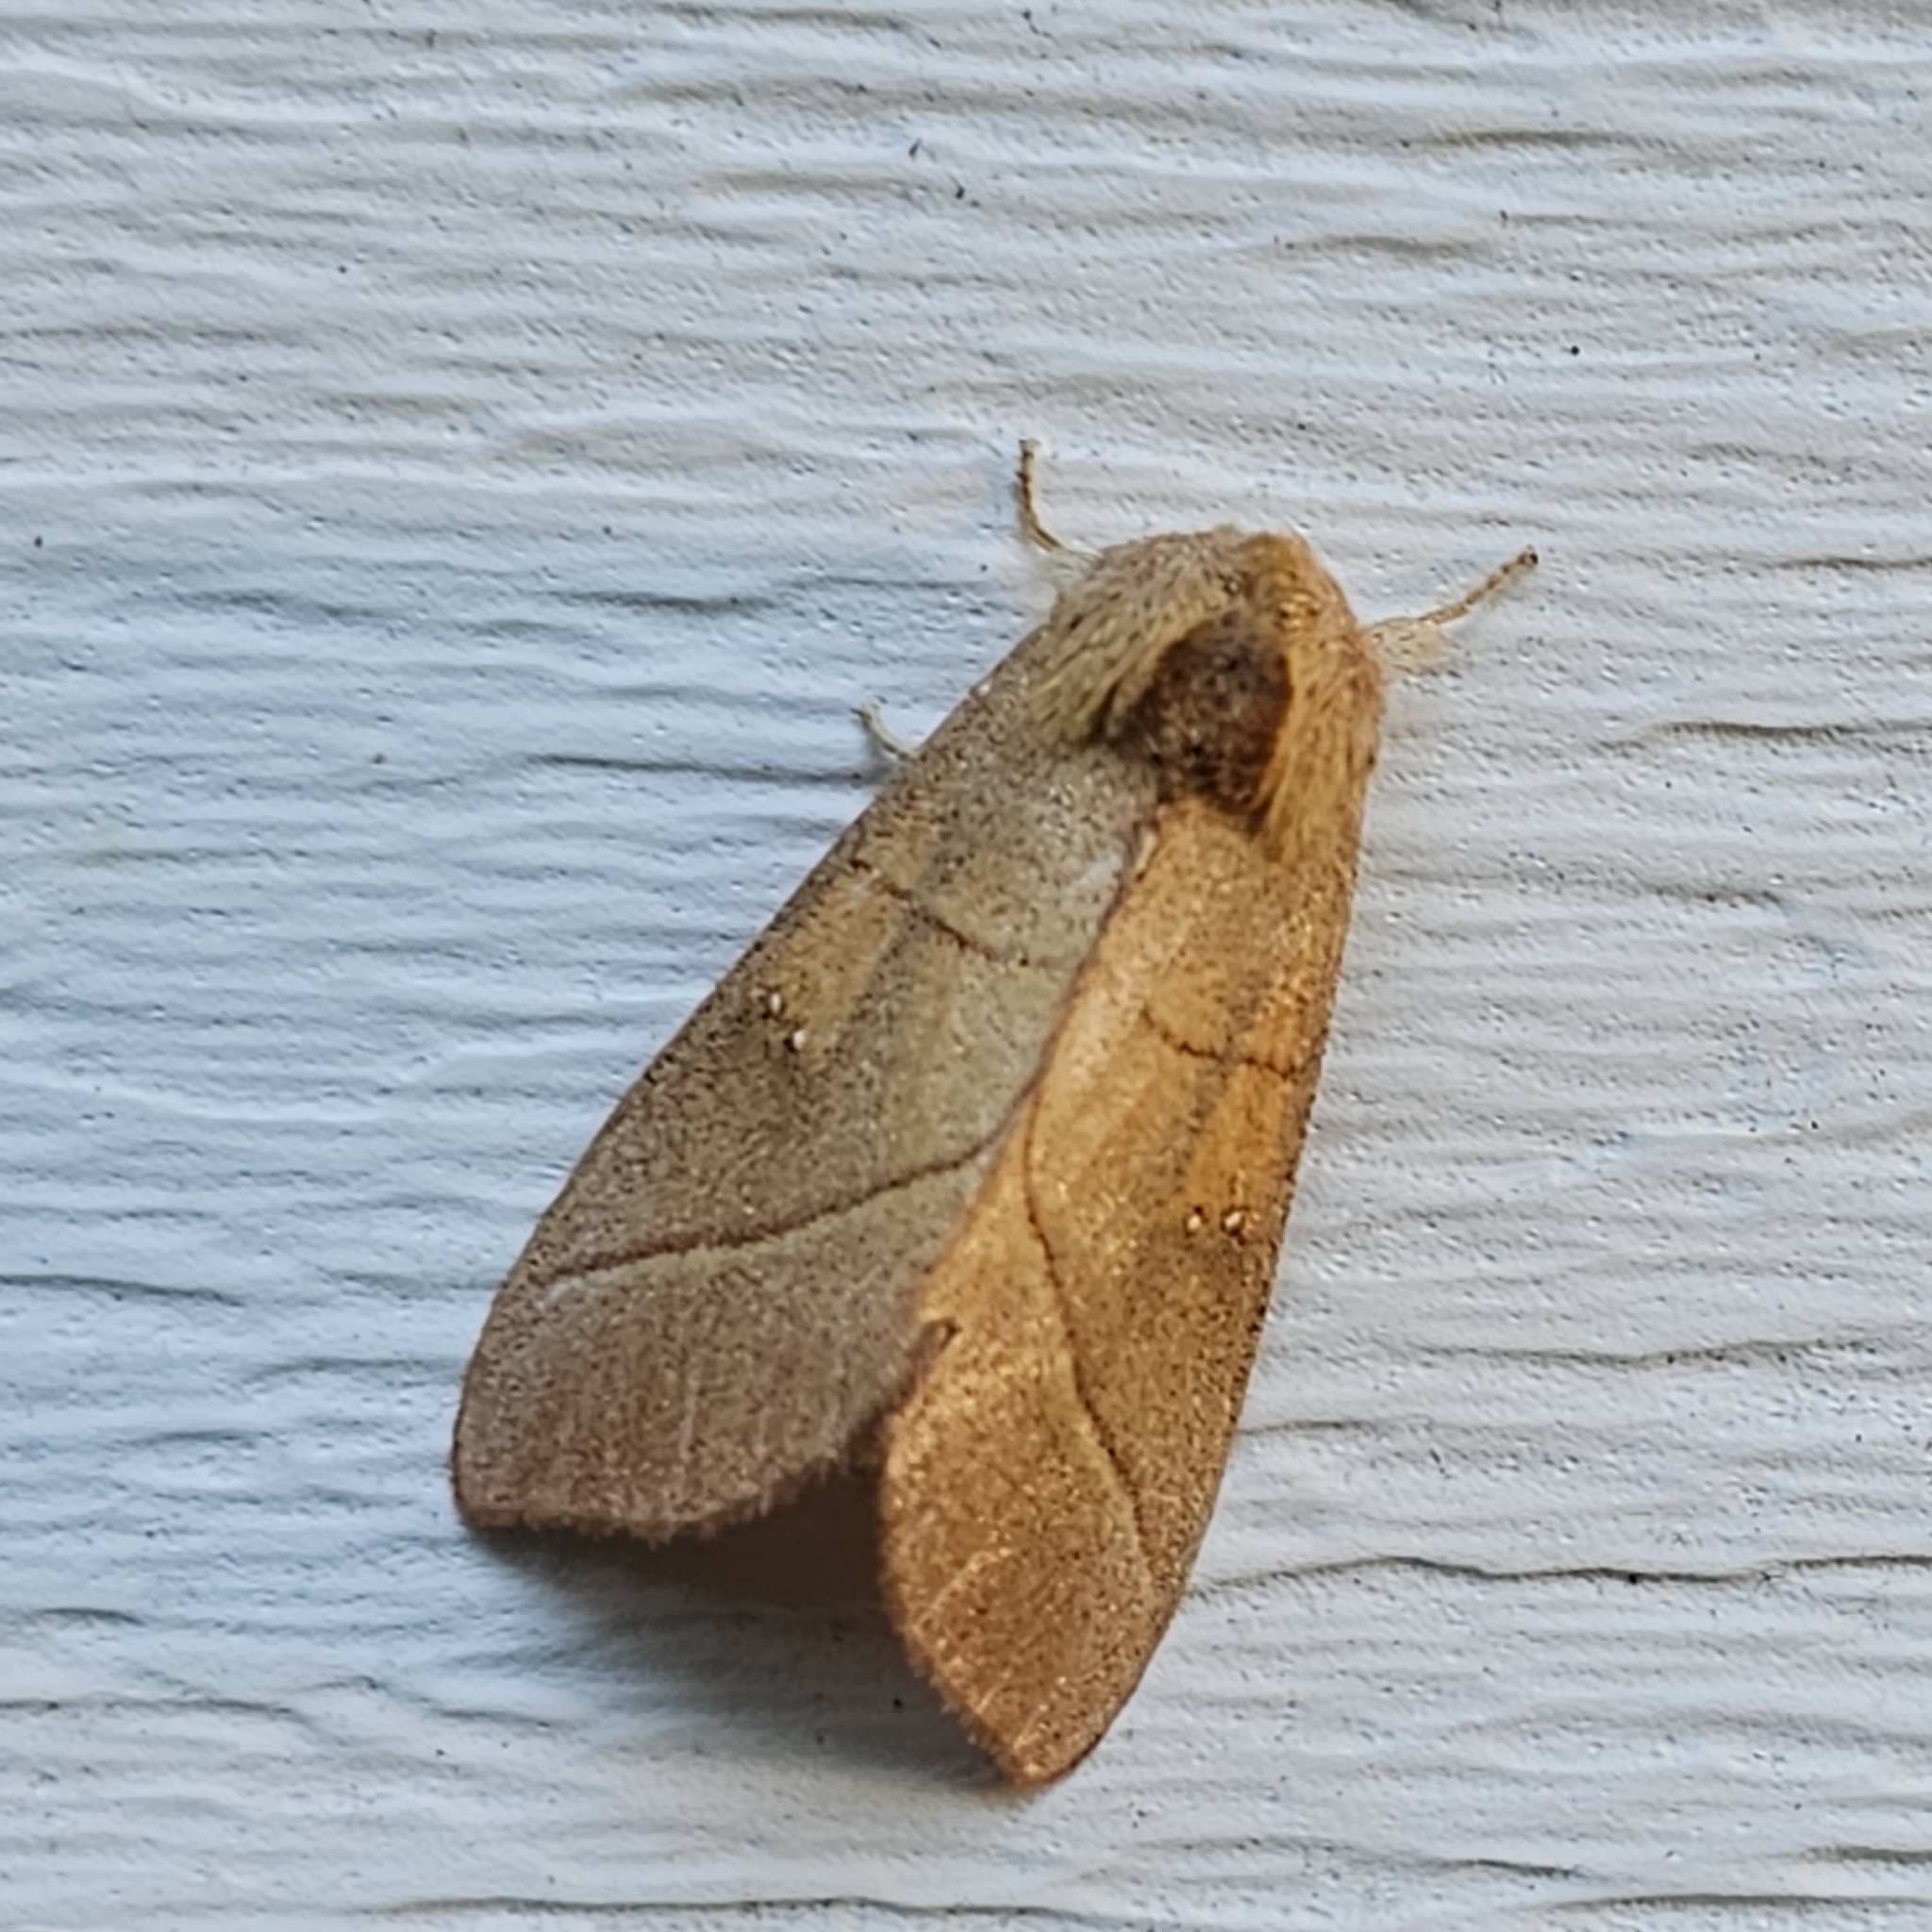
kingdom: Animalia
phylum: Arthropoda
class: Insecta
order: Lepidoptera
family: Notodontidae
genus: Nadata
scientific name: Nadata gibbosa
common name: White-dotted prominent
